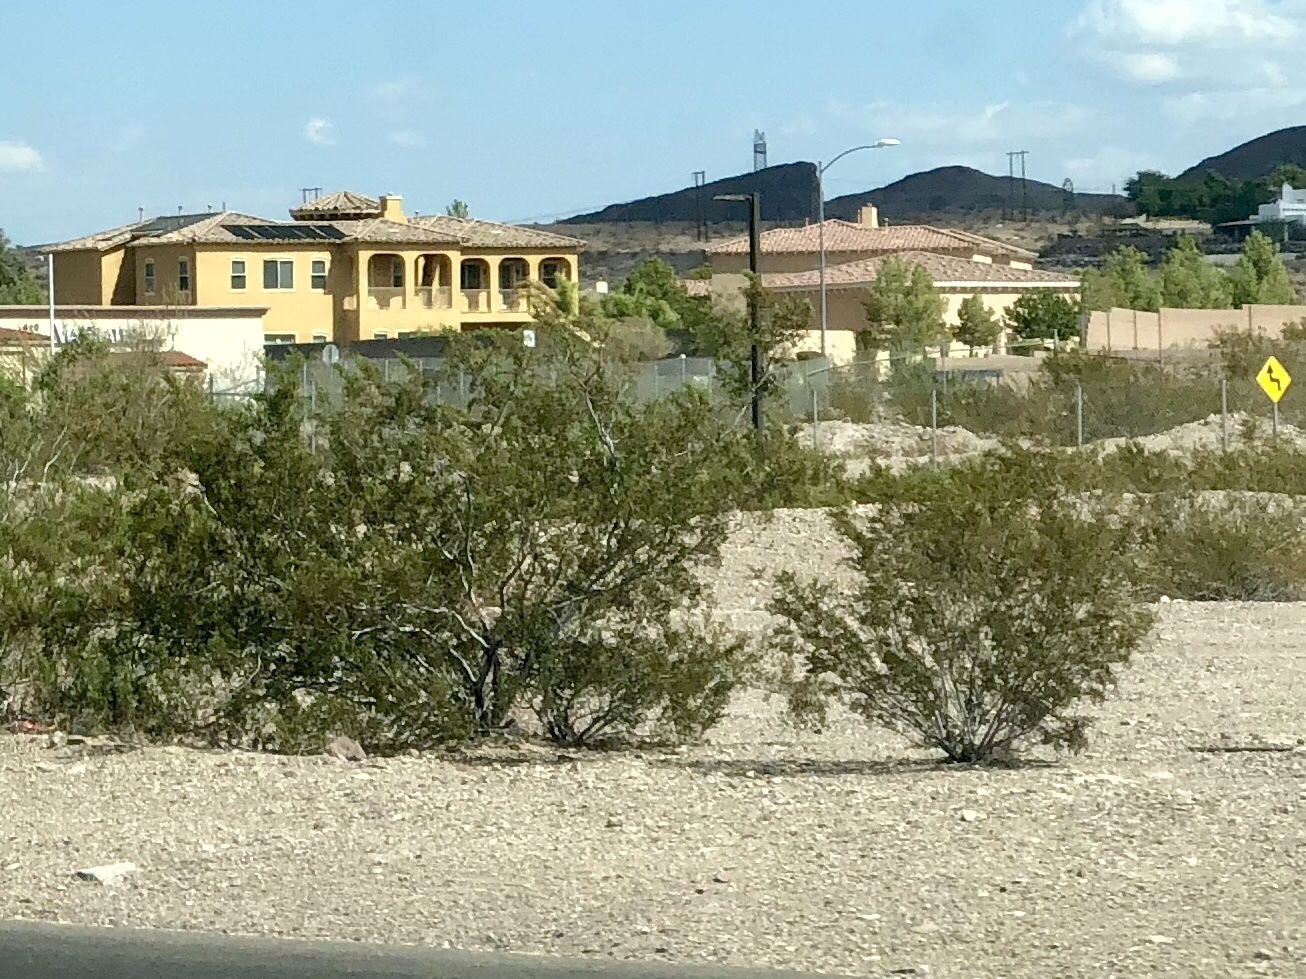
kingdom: Plantae
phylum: Tracheophyta
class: Magnoliopsida
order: Zygophyllales
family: Zygophyllaceae
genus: Larrea
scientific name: Larrea tridentata
